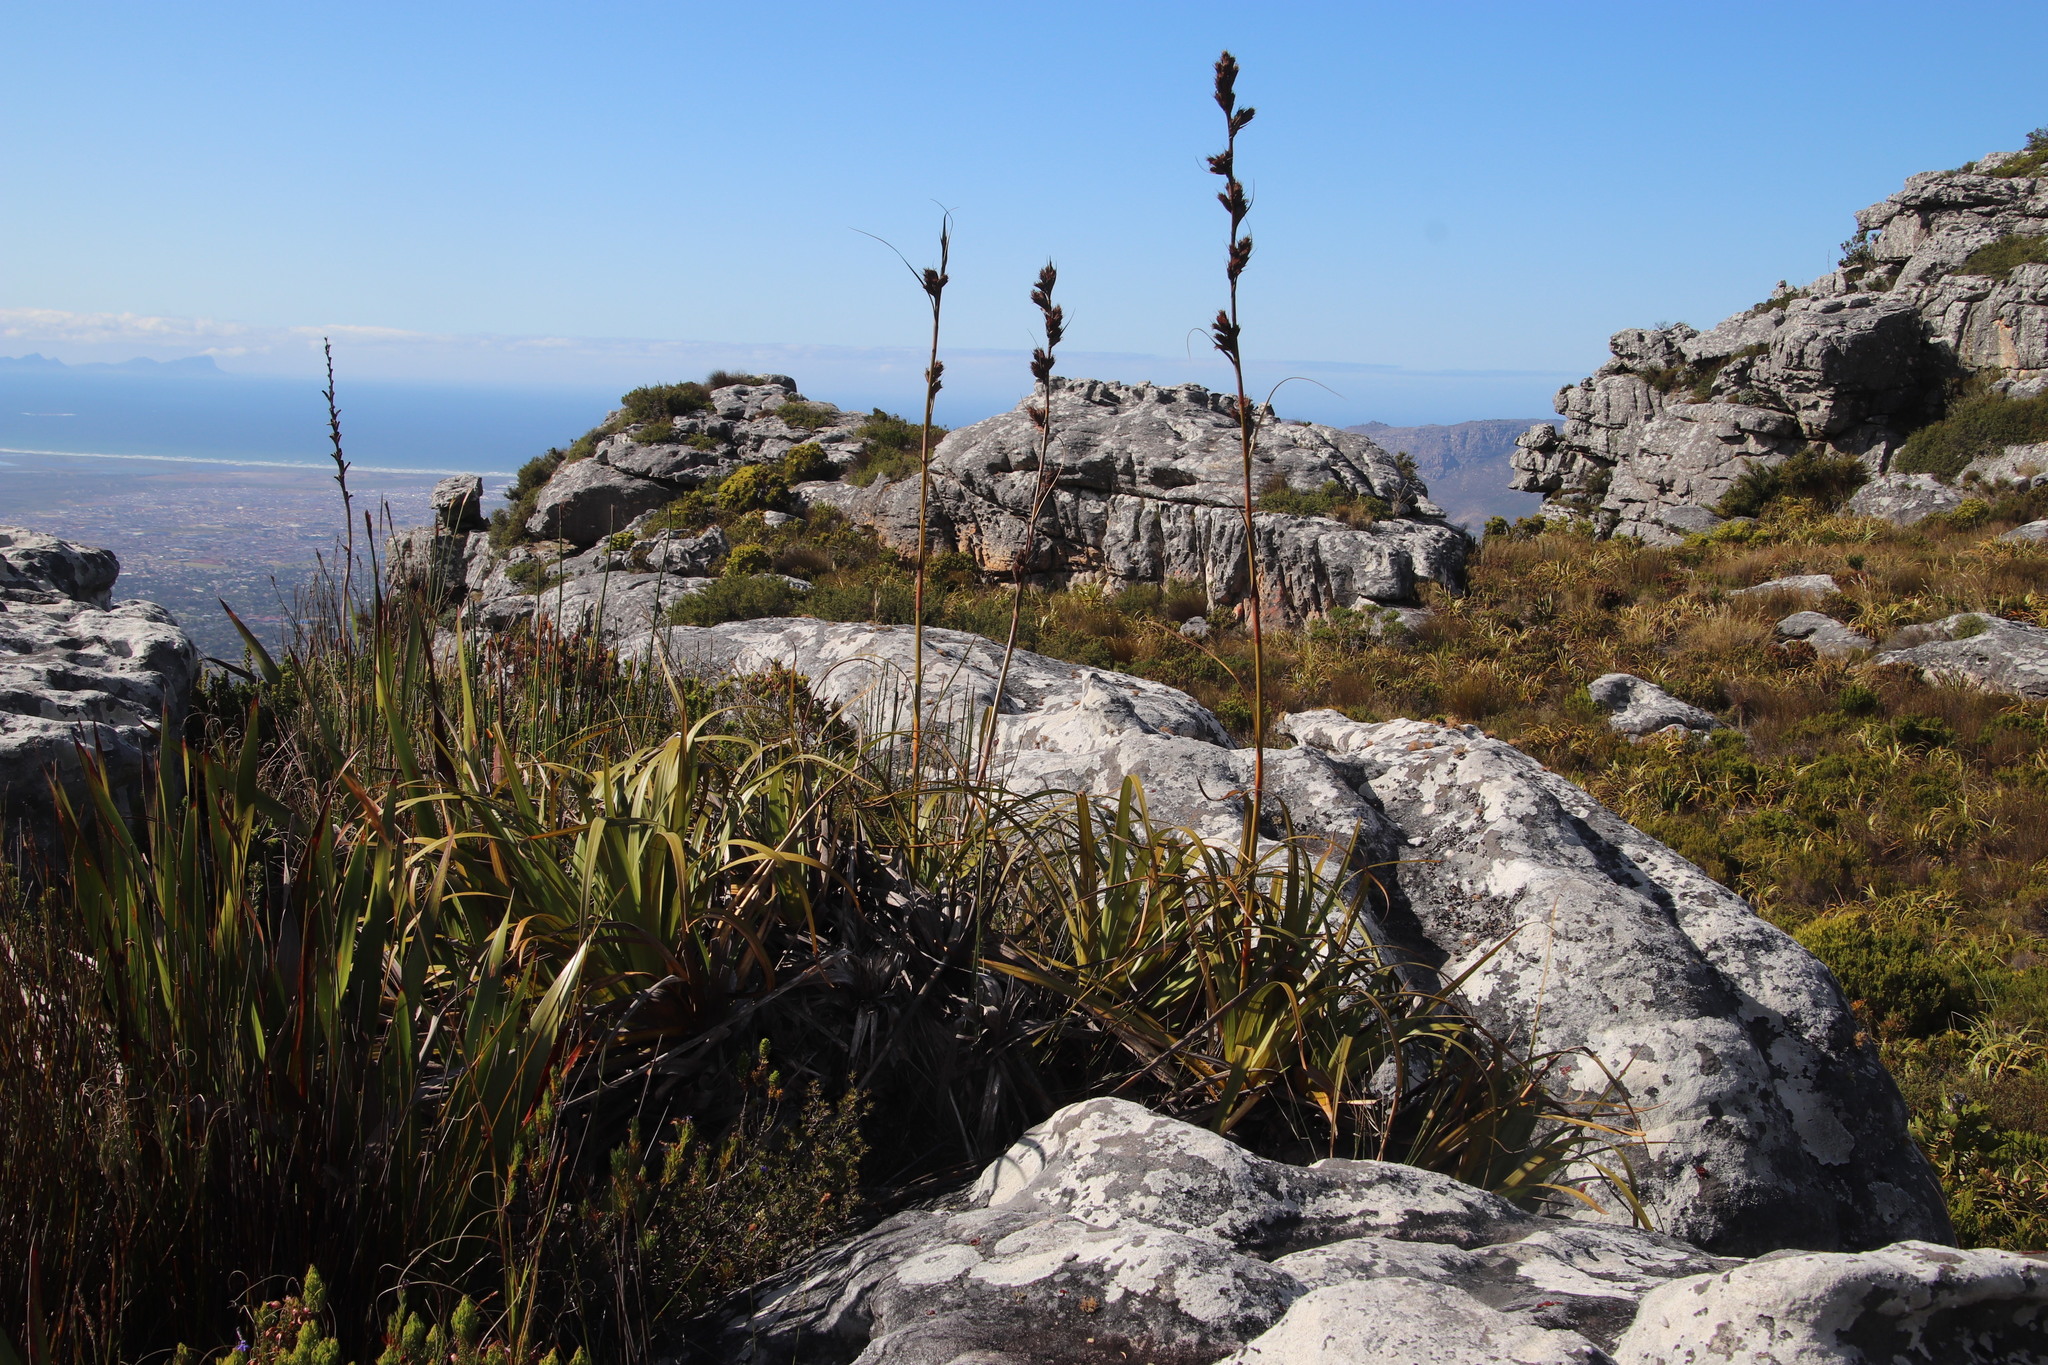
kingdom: Plantae
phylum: Tracheophyta
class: Liliopsida
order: Poales
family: Cyperaceae
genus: Tetraria
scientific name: Tetraria thermalis
